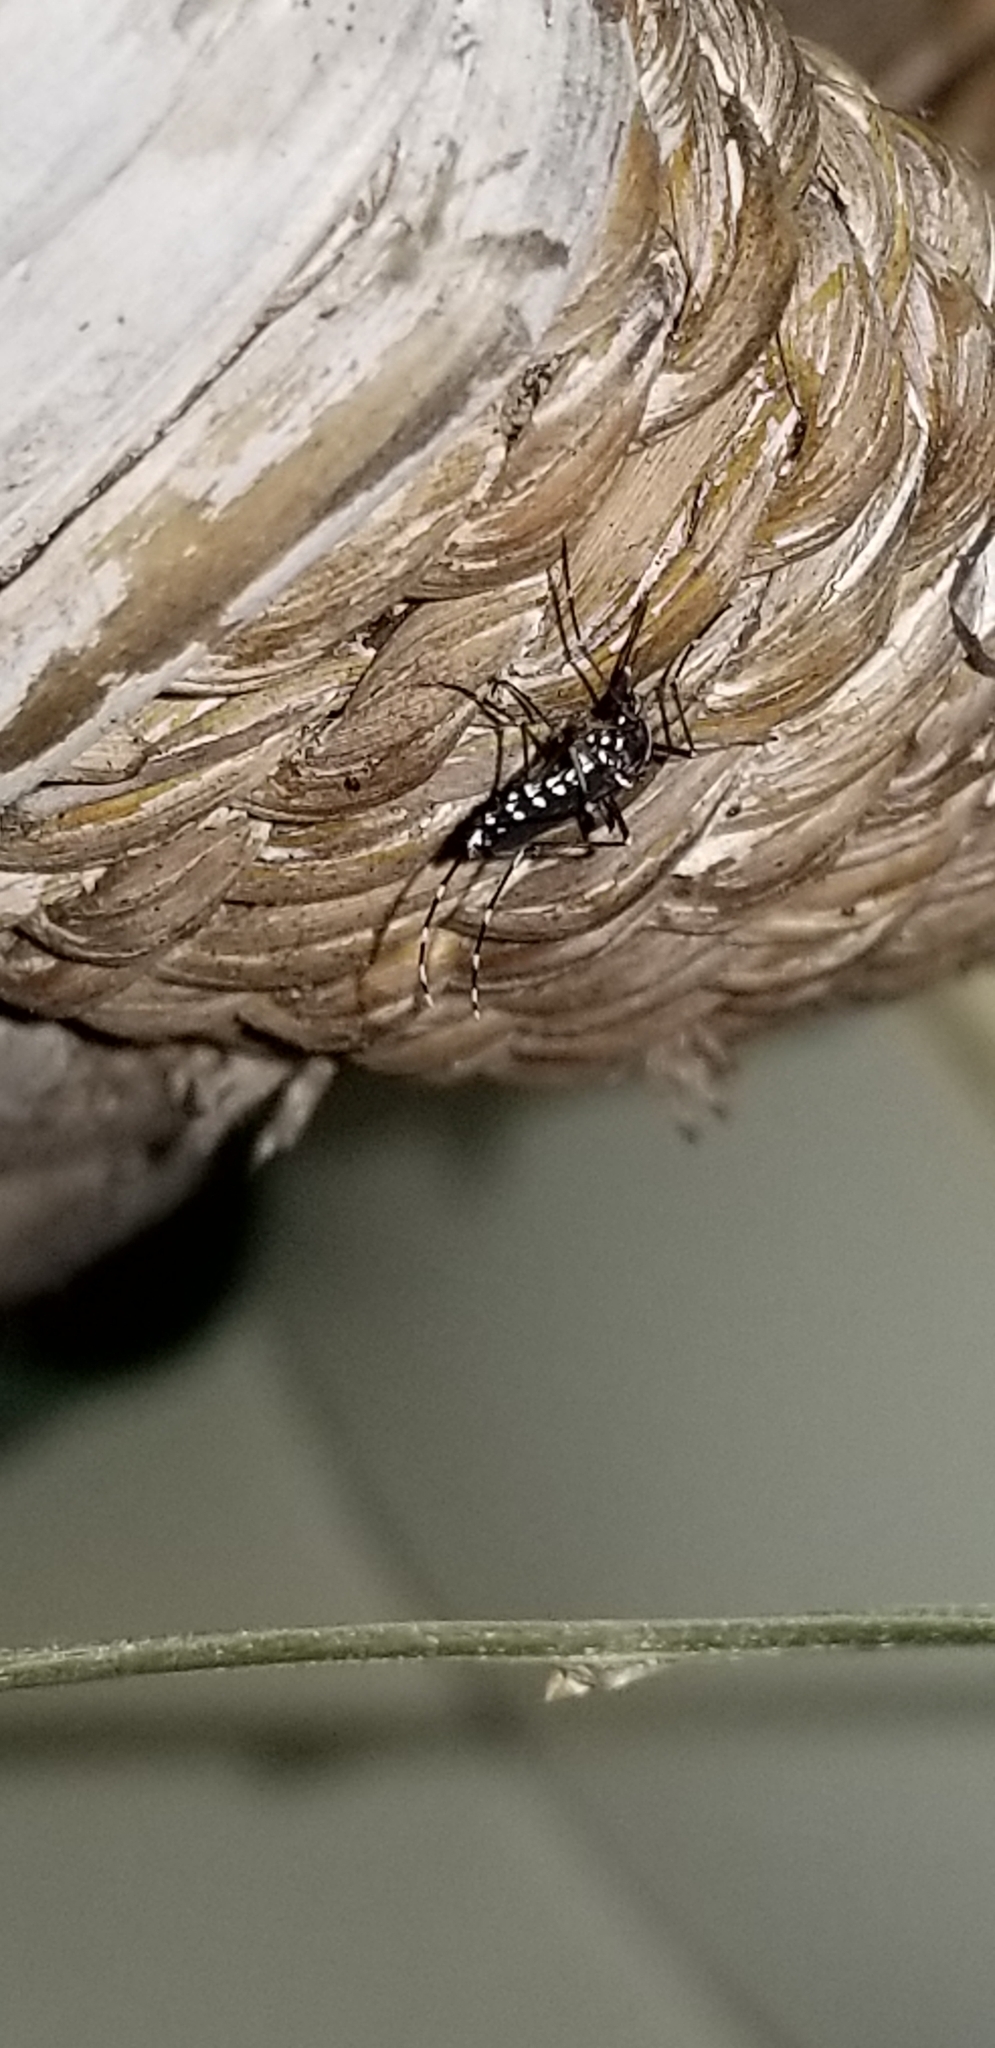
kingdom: Animalia
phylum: Arthropoda
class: Insecta
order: Diptera
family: Culicidae
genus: Aedes
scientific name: Aedes albopictus
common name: Tiger mosquito
